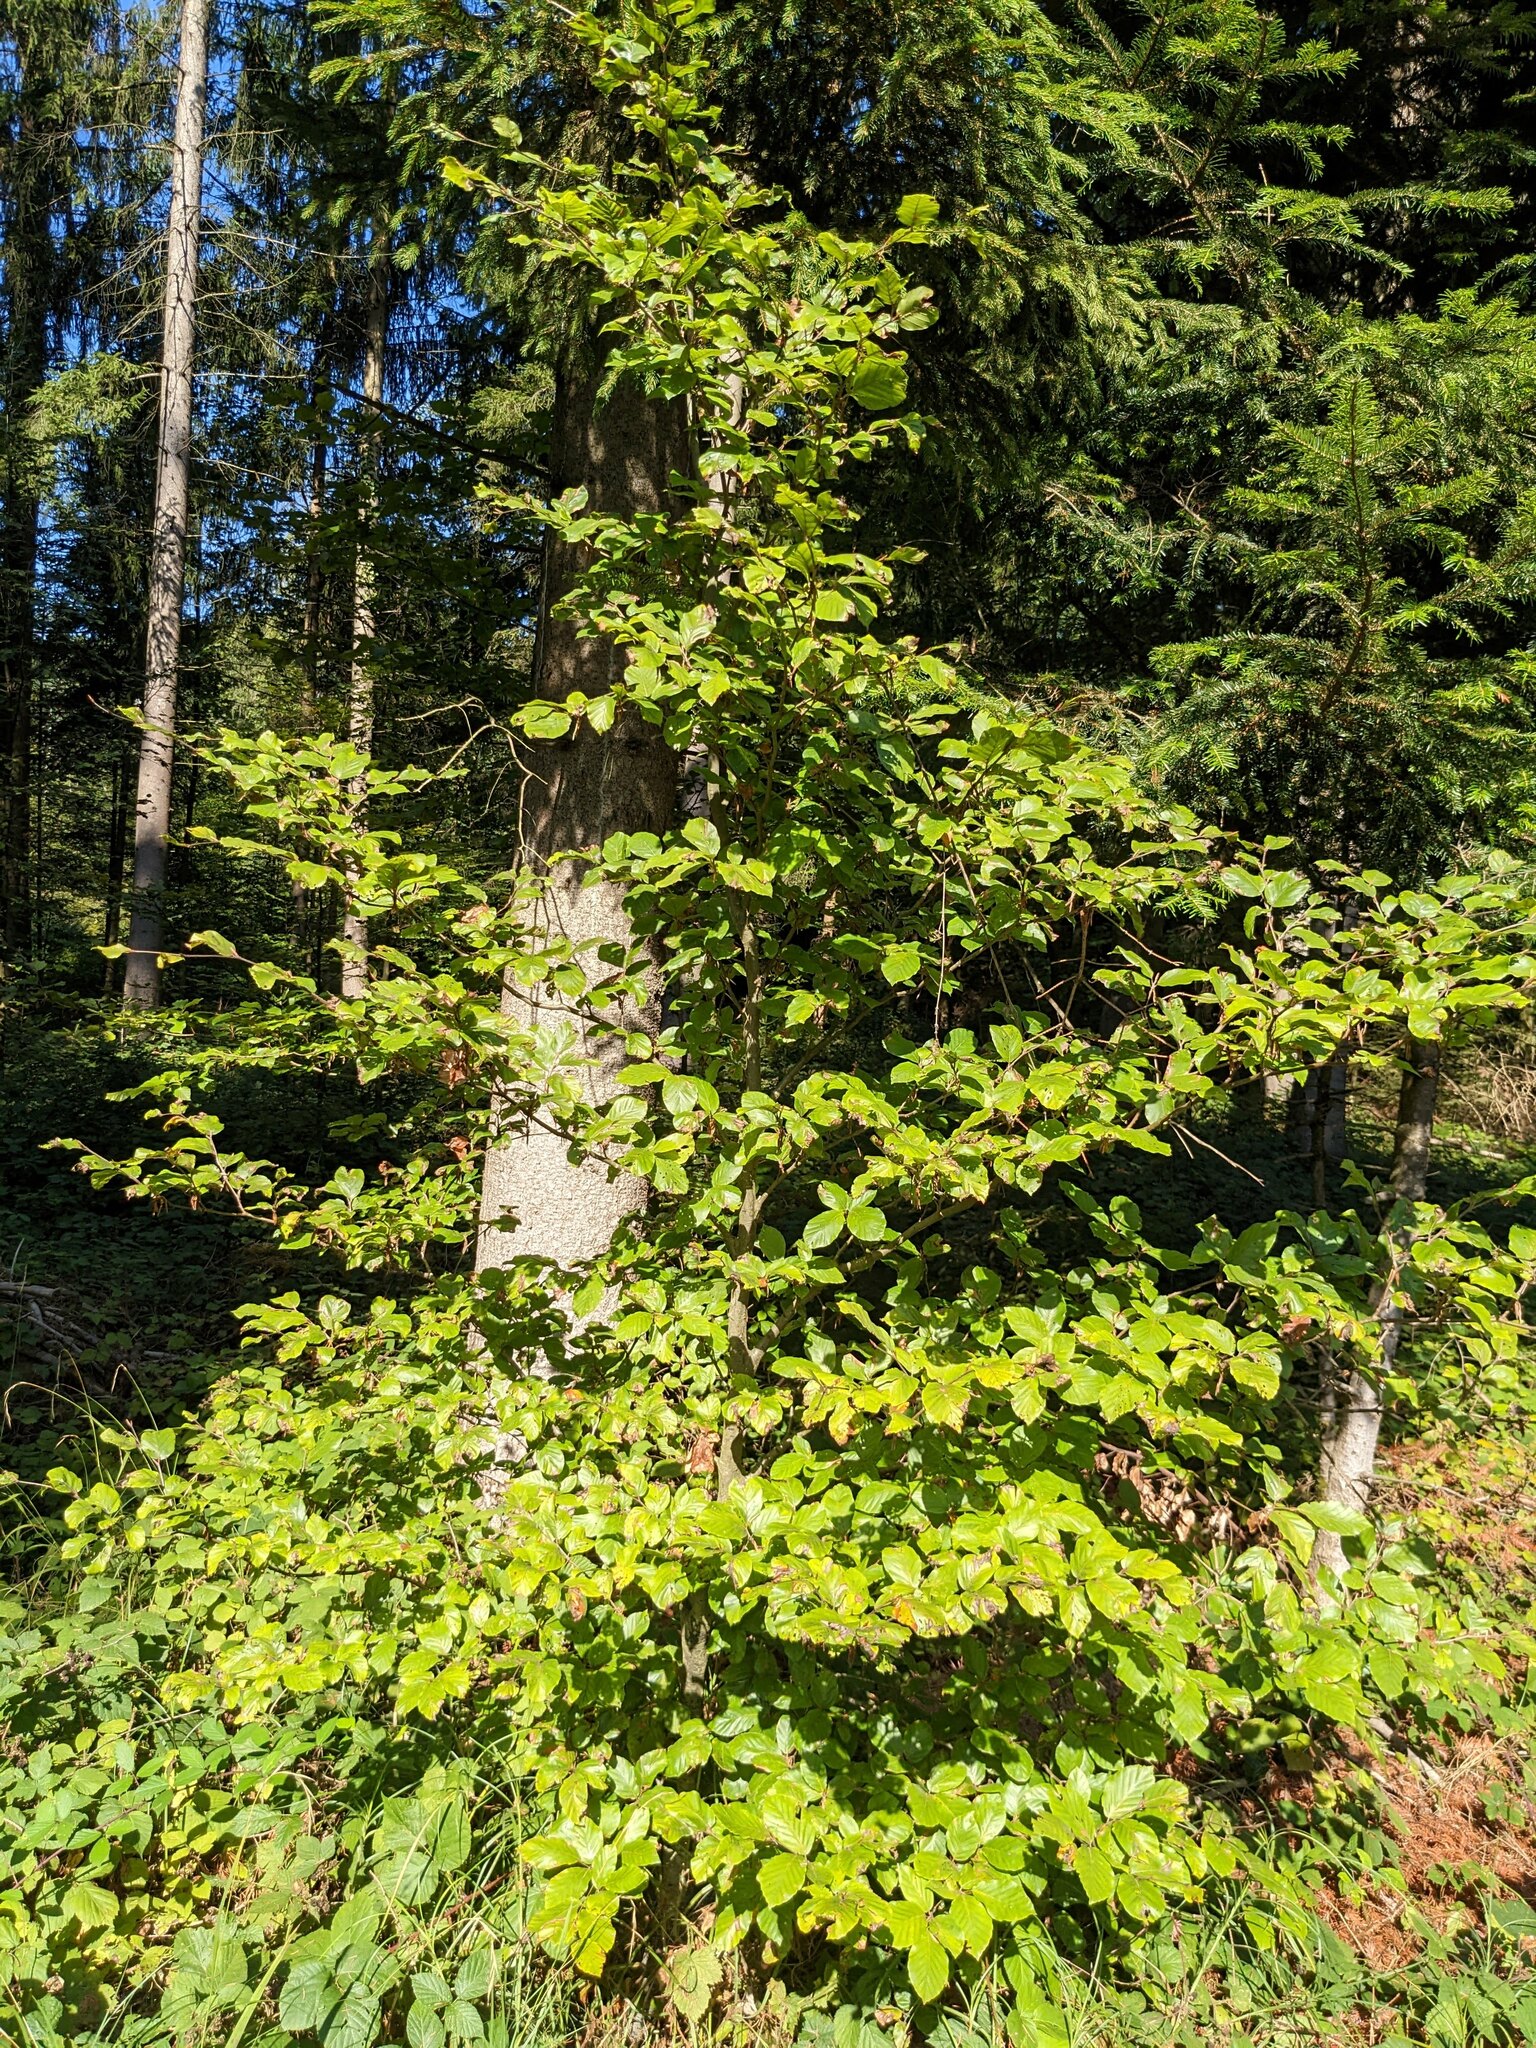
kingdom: Plantae
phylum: Tracheophyta
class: Magnoliopsida
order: Fagales
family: Fagaceae
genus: Fagus
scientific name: Fagus sylvatica
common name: Beech
